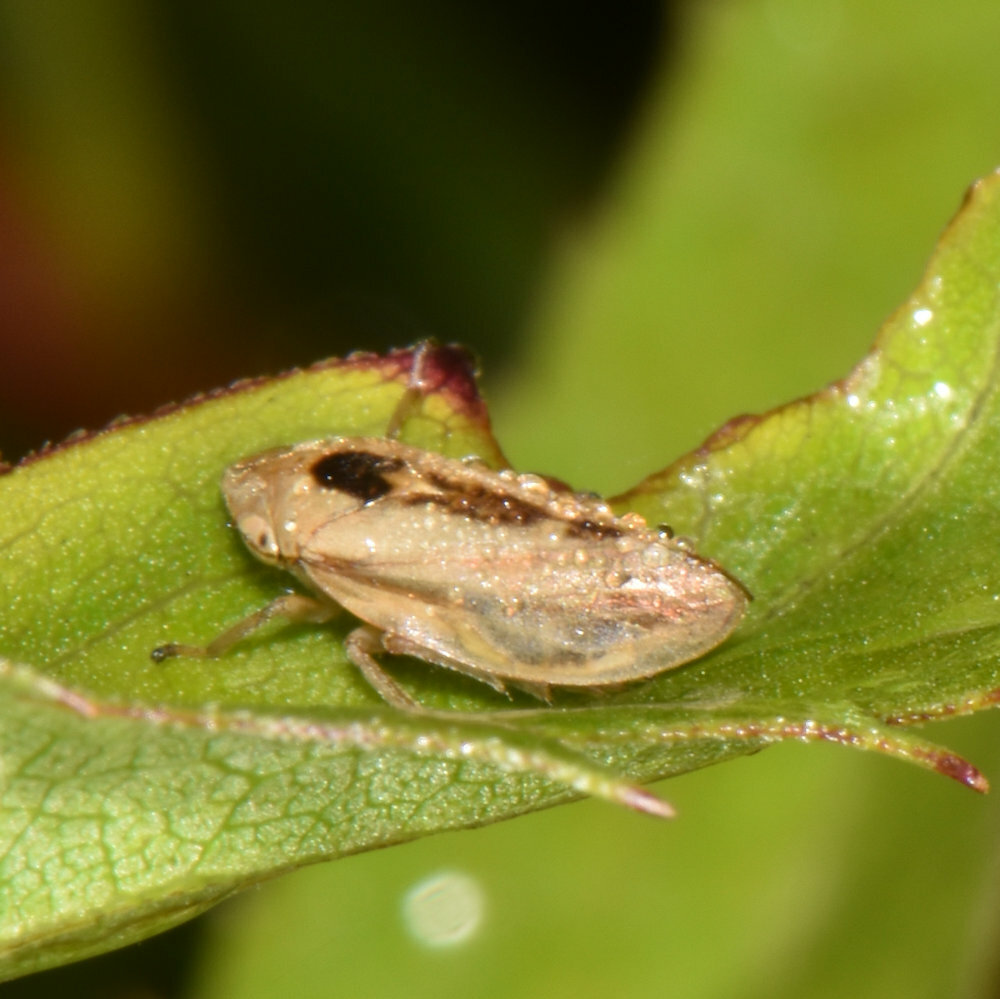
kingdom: Animalia
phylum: Arthropoda
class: Insecta
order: Hemiptera
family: Aphrophoridae
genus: Philaenus
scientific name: Philaenus spumarius
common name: Meadow spittlebug
